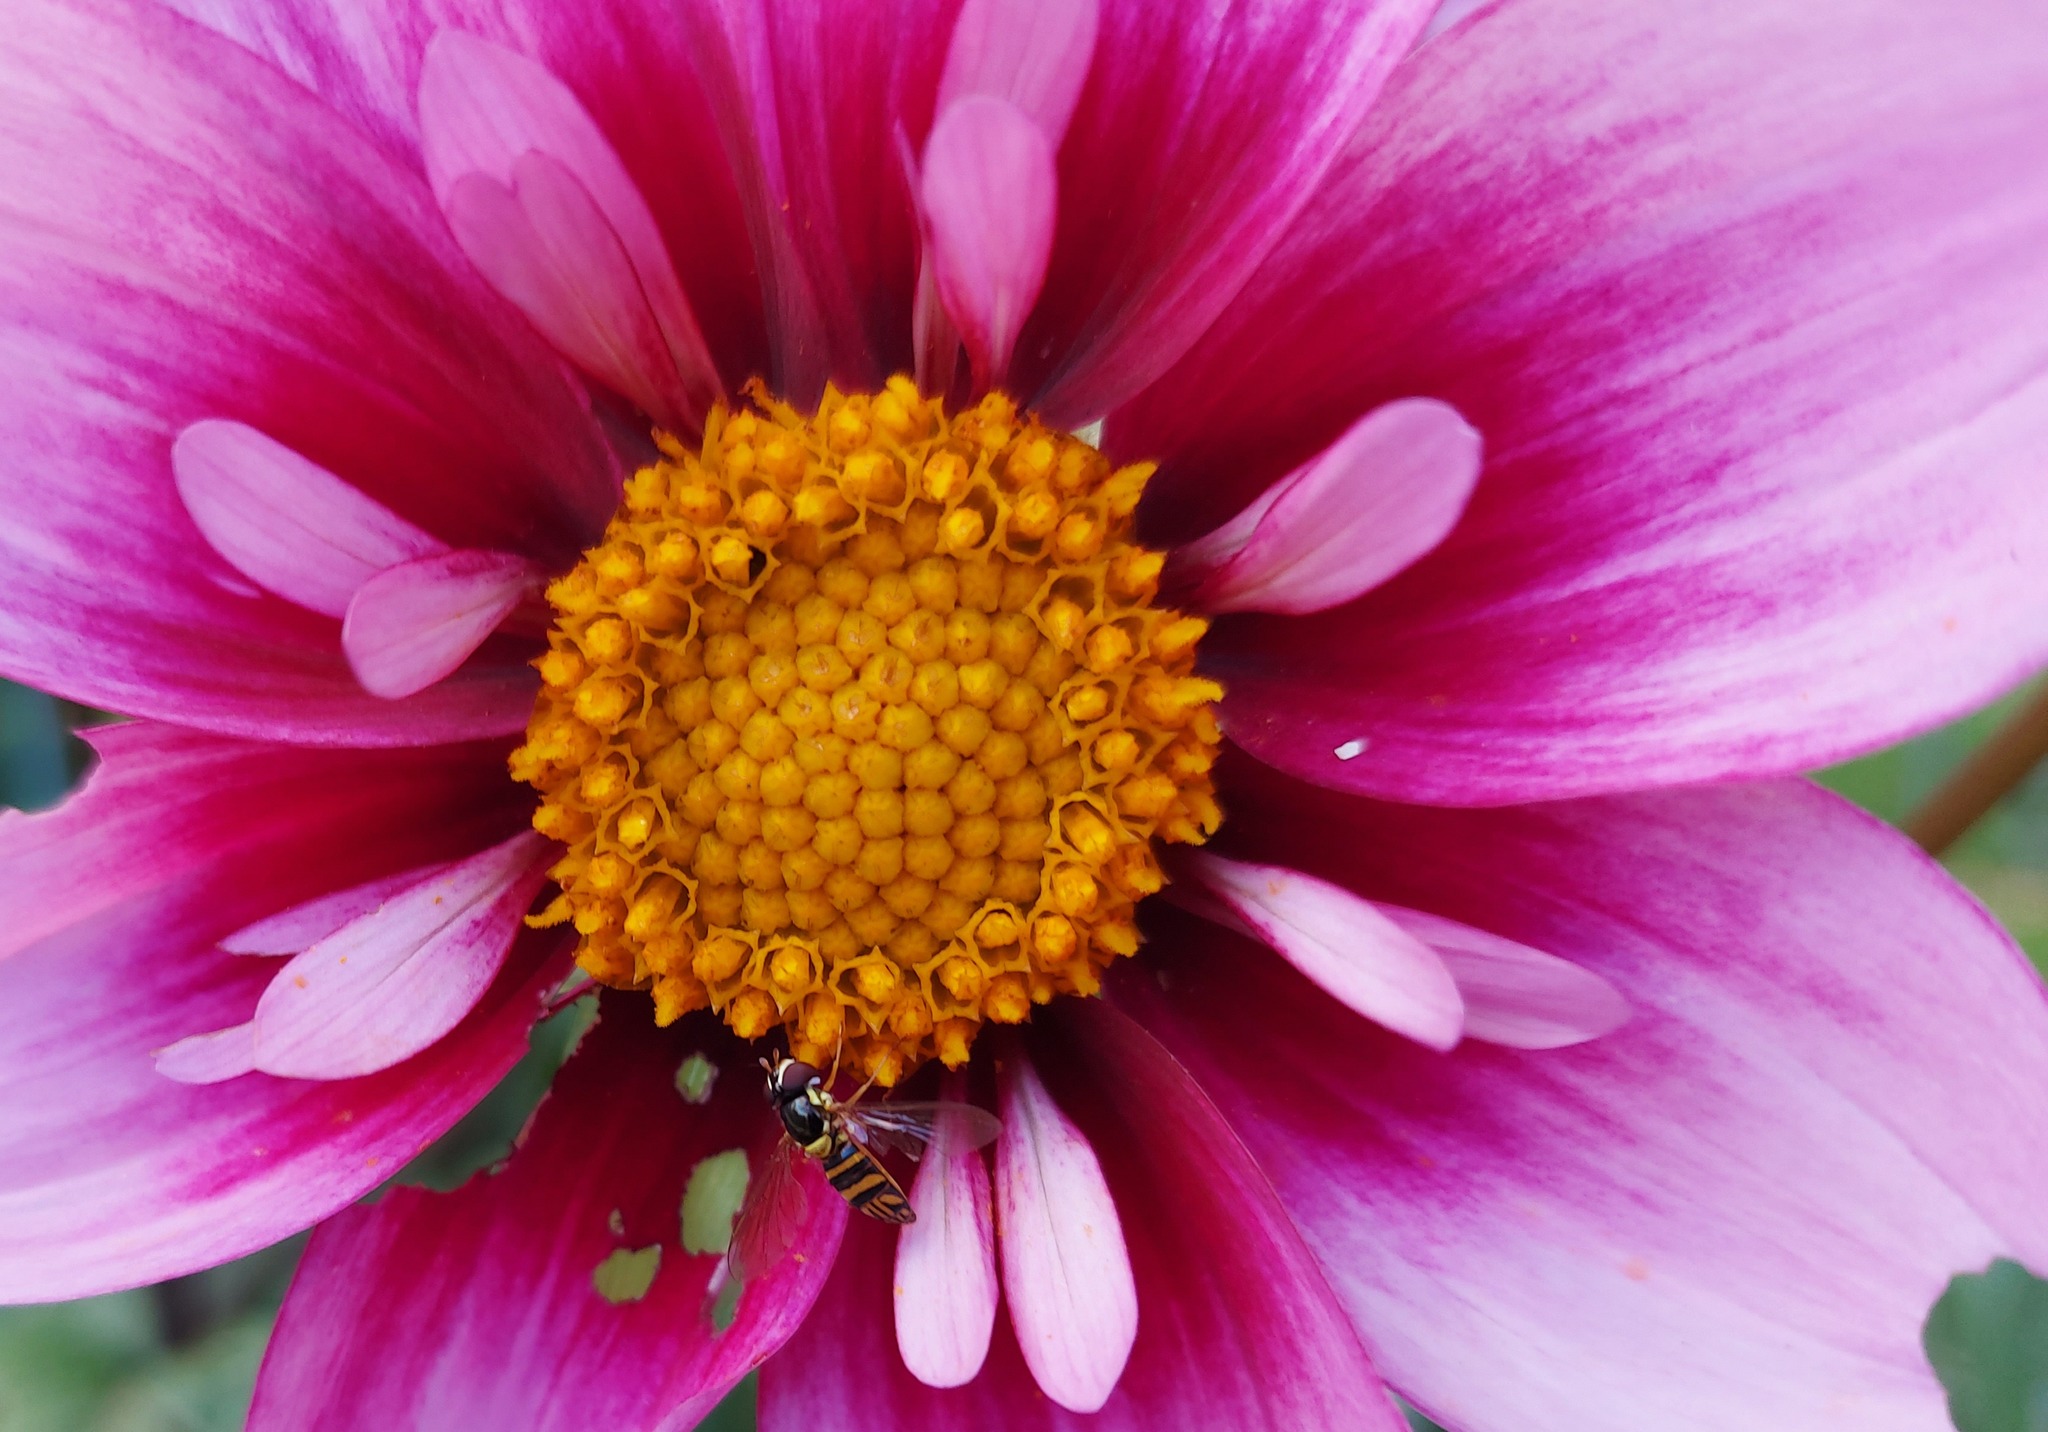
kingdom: Animalia
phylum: Arthropoda
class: Insecta
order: Diptera
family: Syrphidae
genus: Allograpta
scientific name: Allograpta obliqua
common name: Common oblique syrphid
